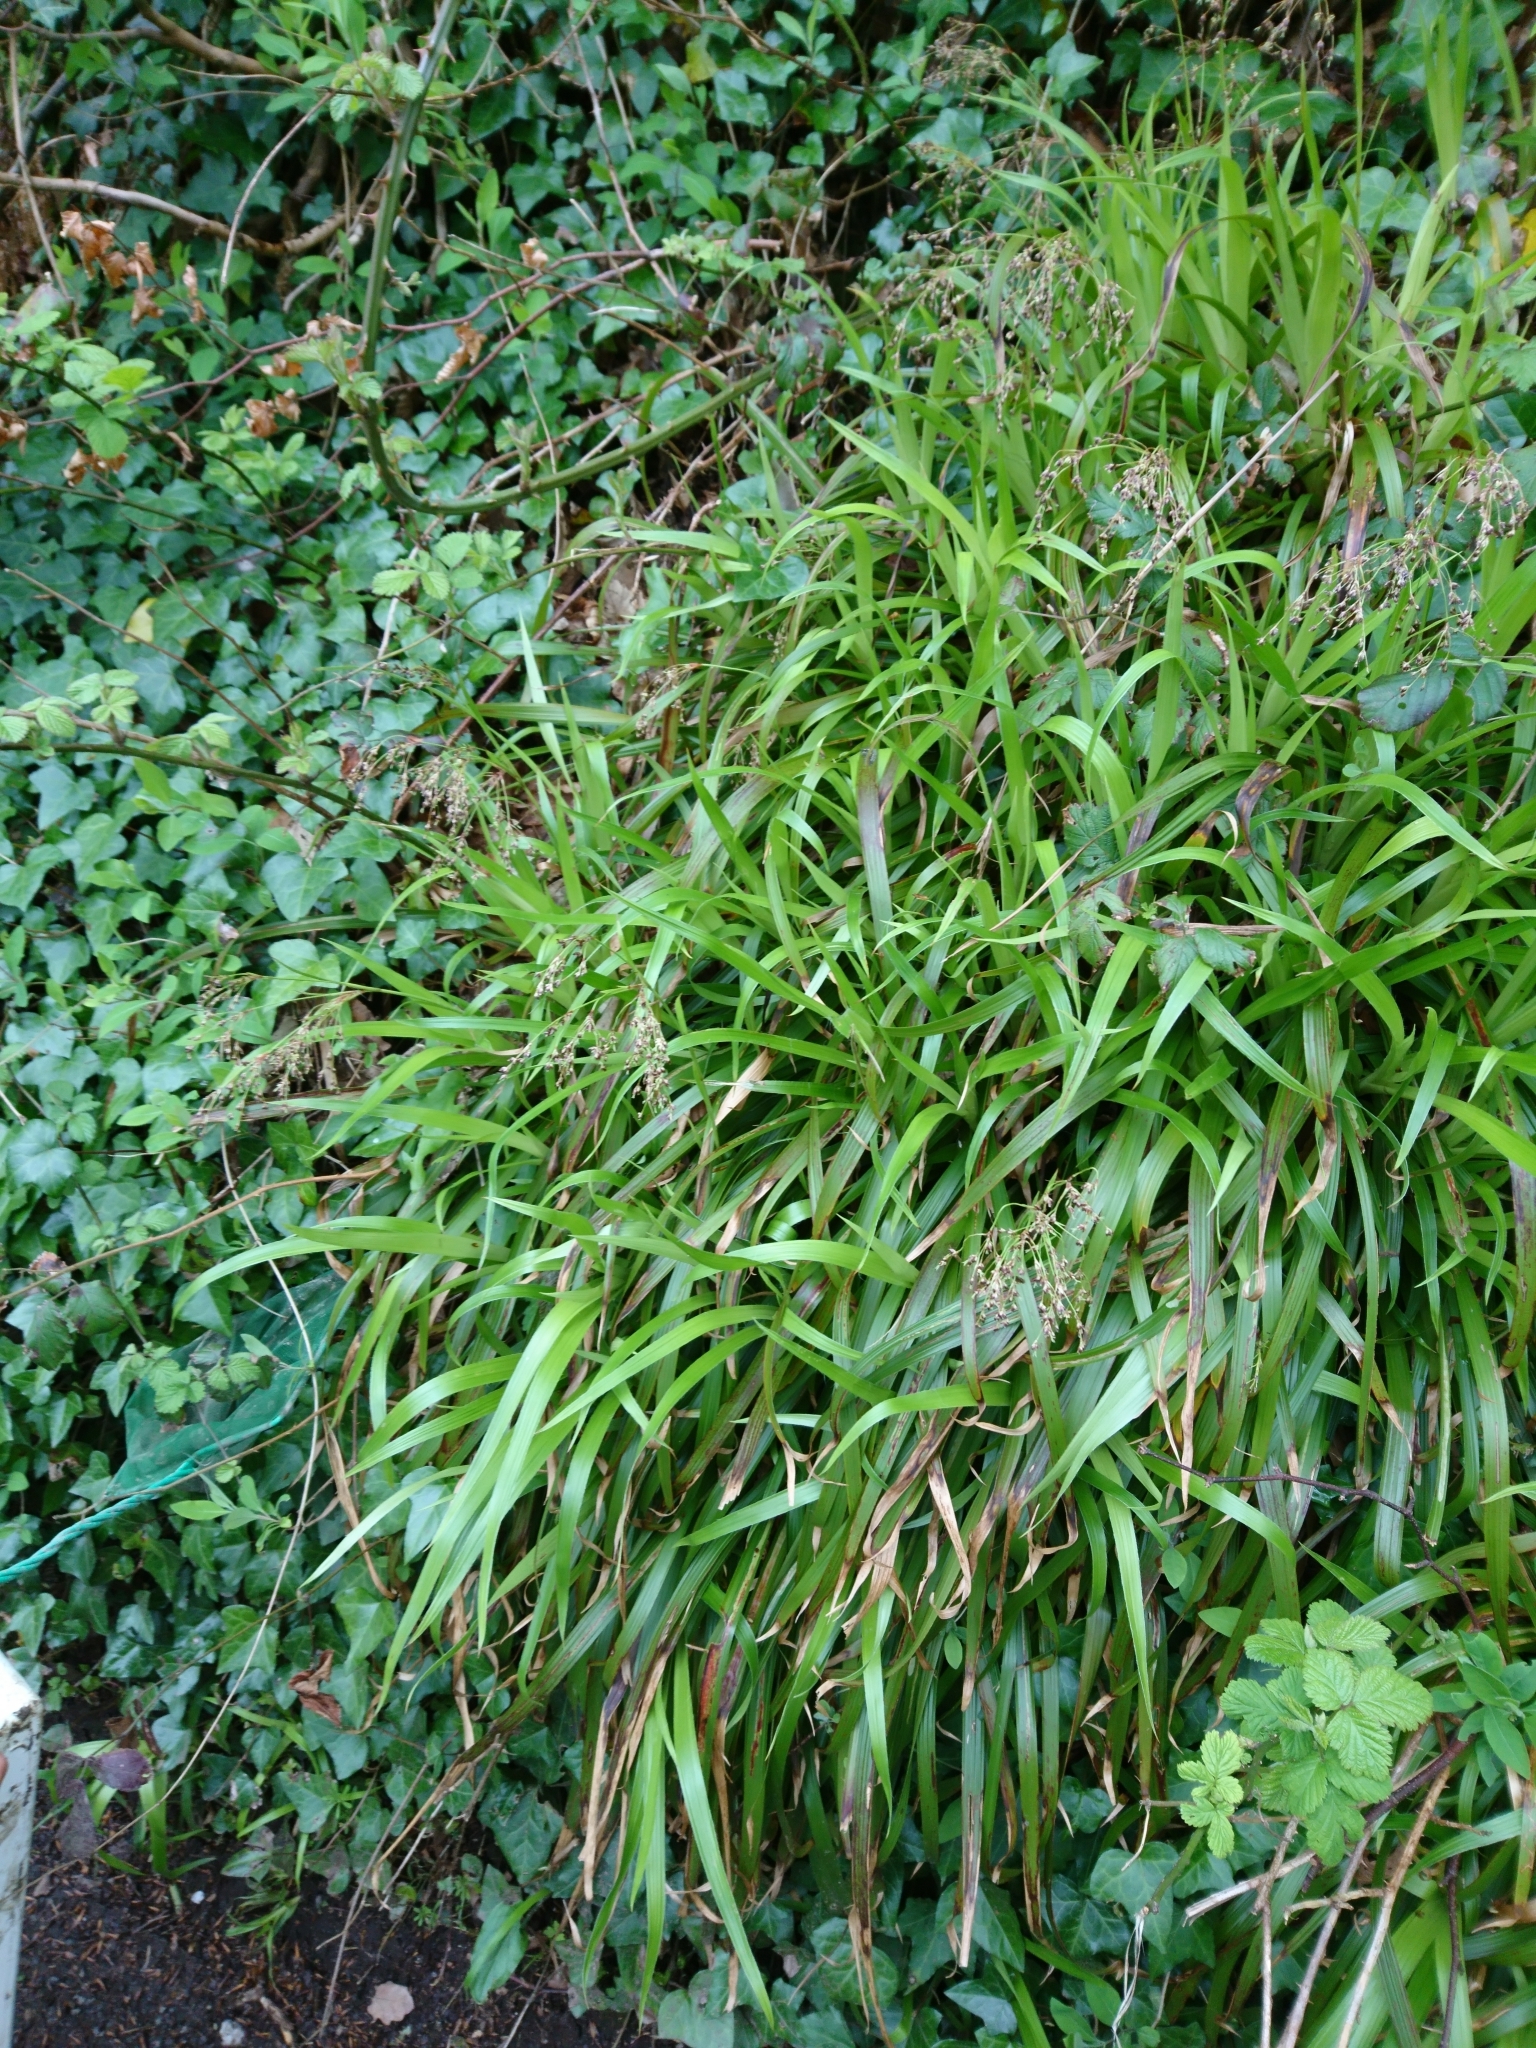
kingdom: Plantae
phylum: Tracheophyta
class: Liliopsida
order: Poales
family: Juncaceae
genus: Luzula
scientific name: Luzula sylvatica
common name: Great wood-rush
